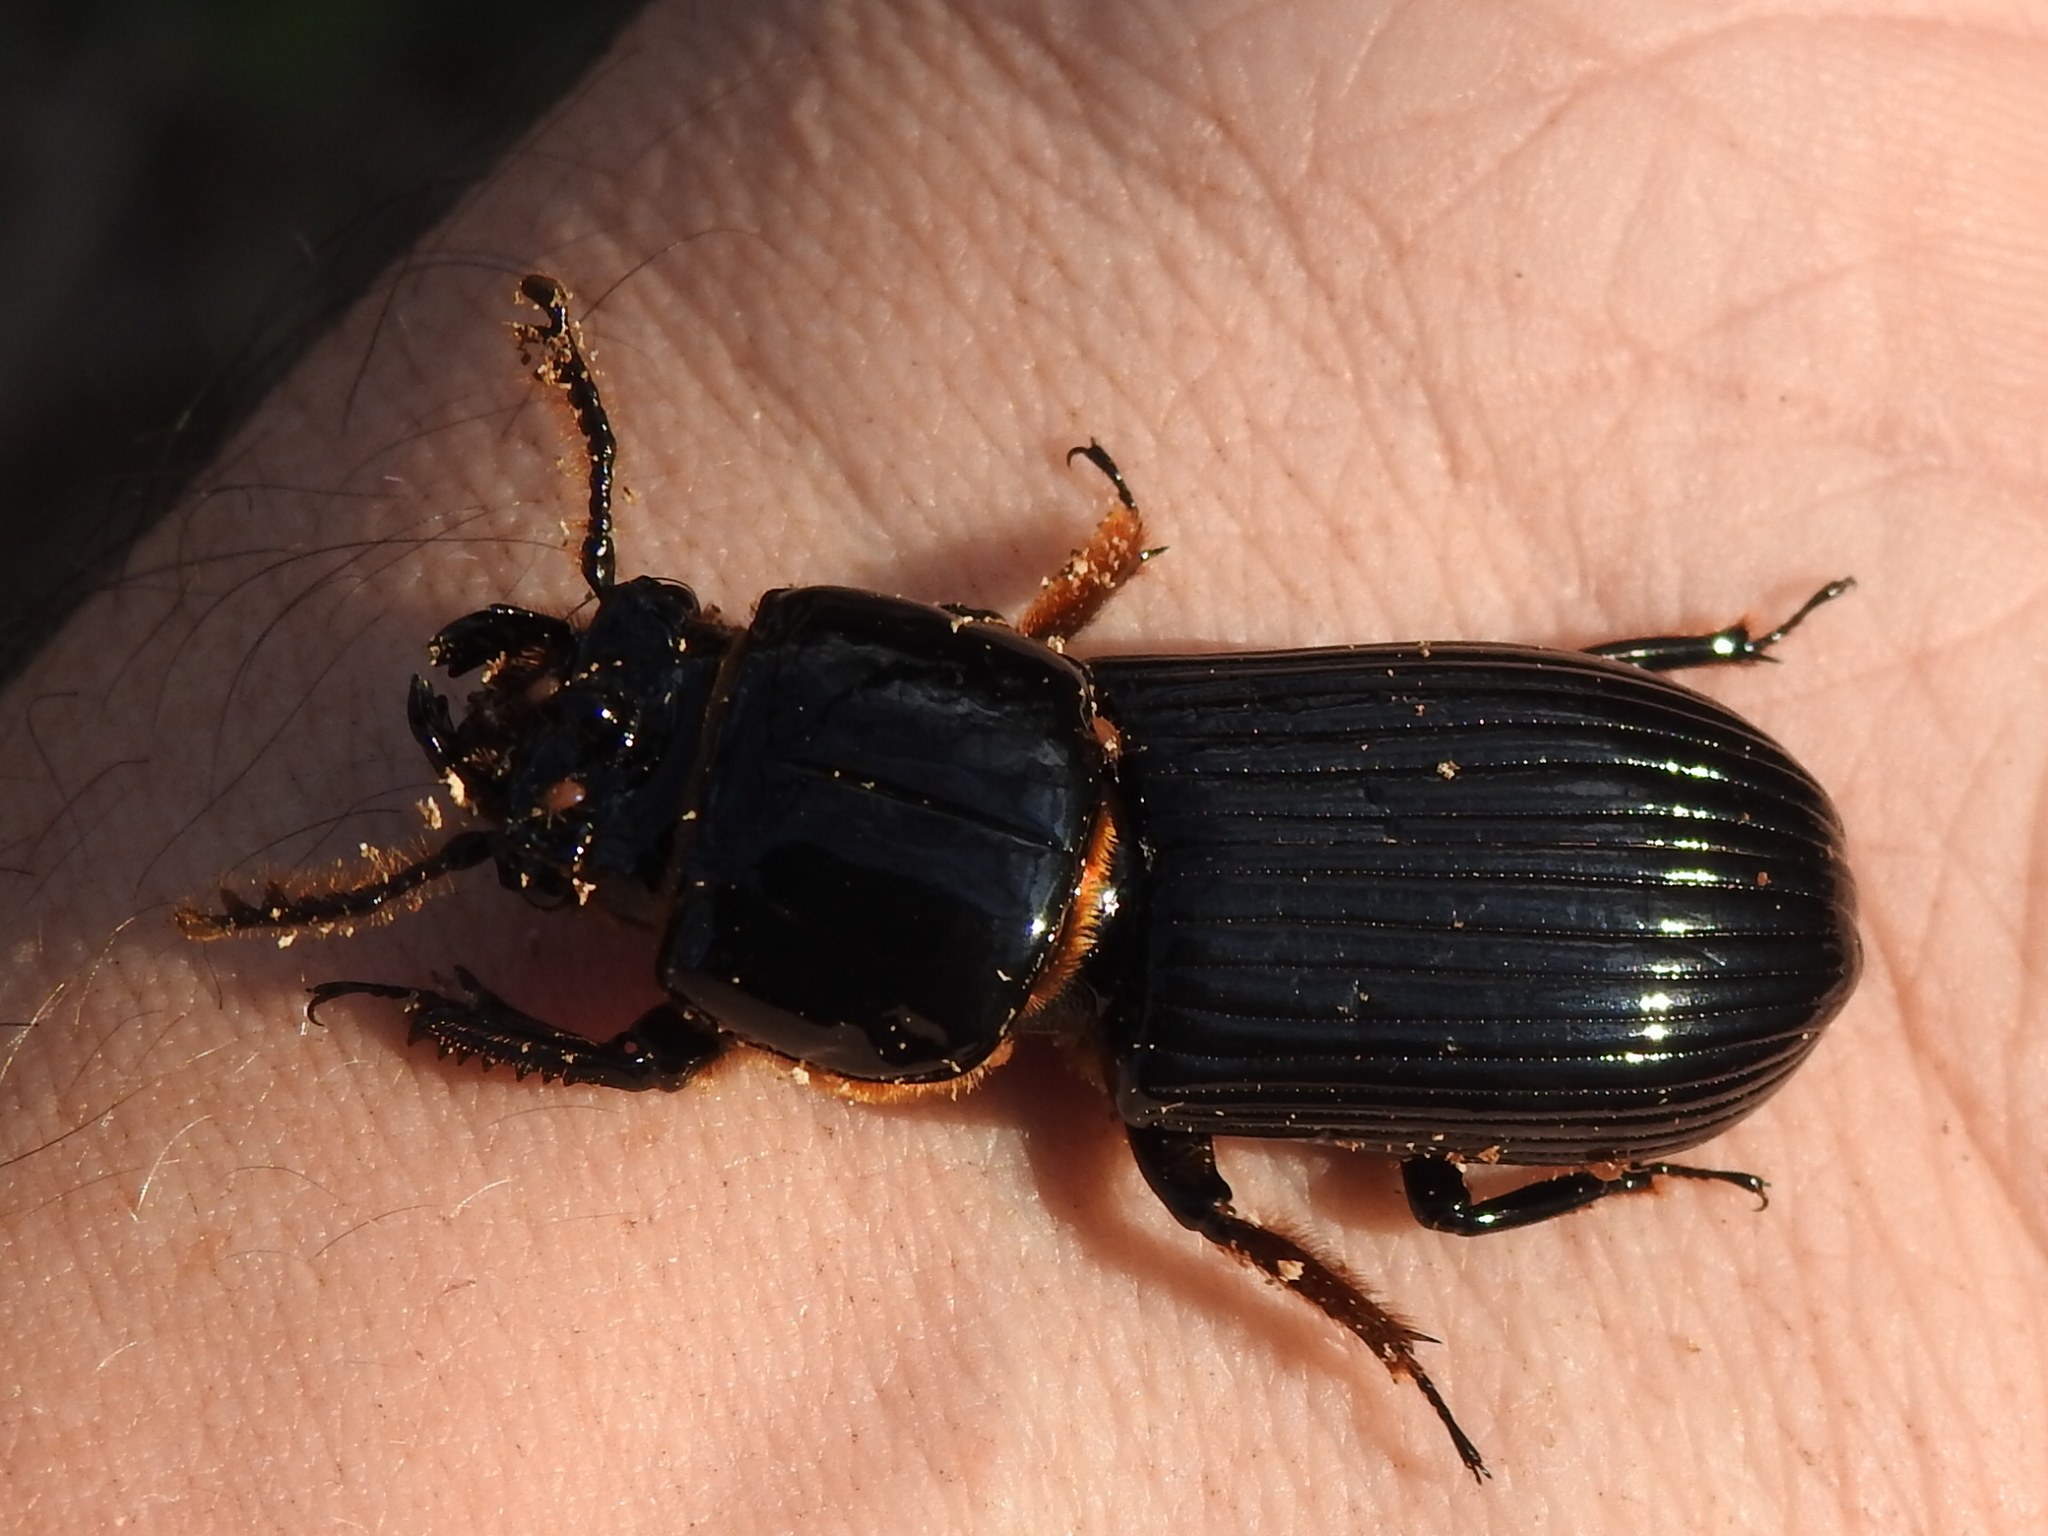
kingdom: Animalia
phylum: Arthropoda
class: Insecta
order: Coleoptera
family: Passalidae
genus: Odontotaenius
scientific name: Odontotaenius disjunctus
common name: Patent leather beetle
